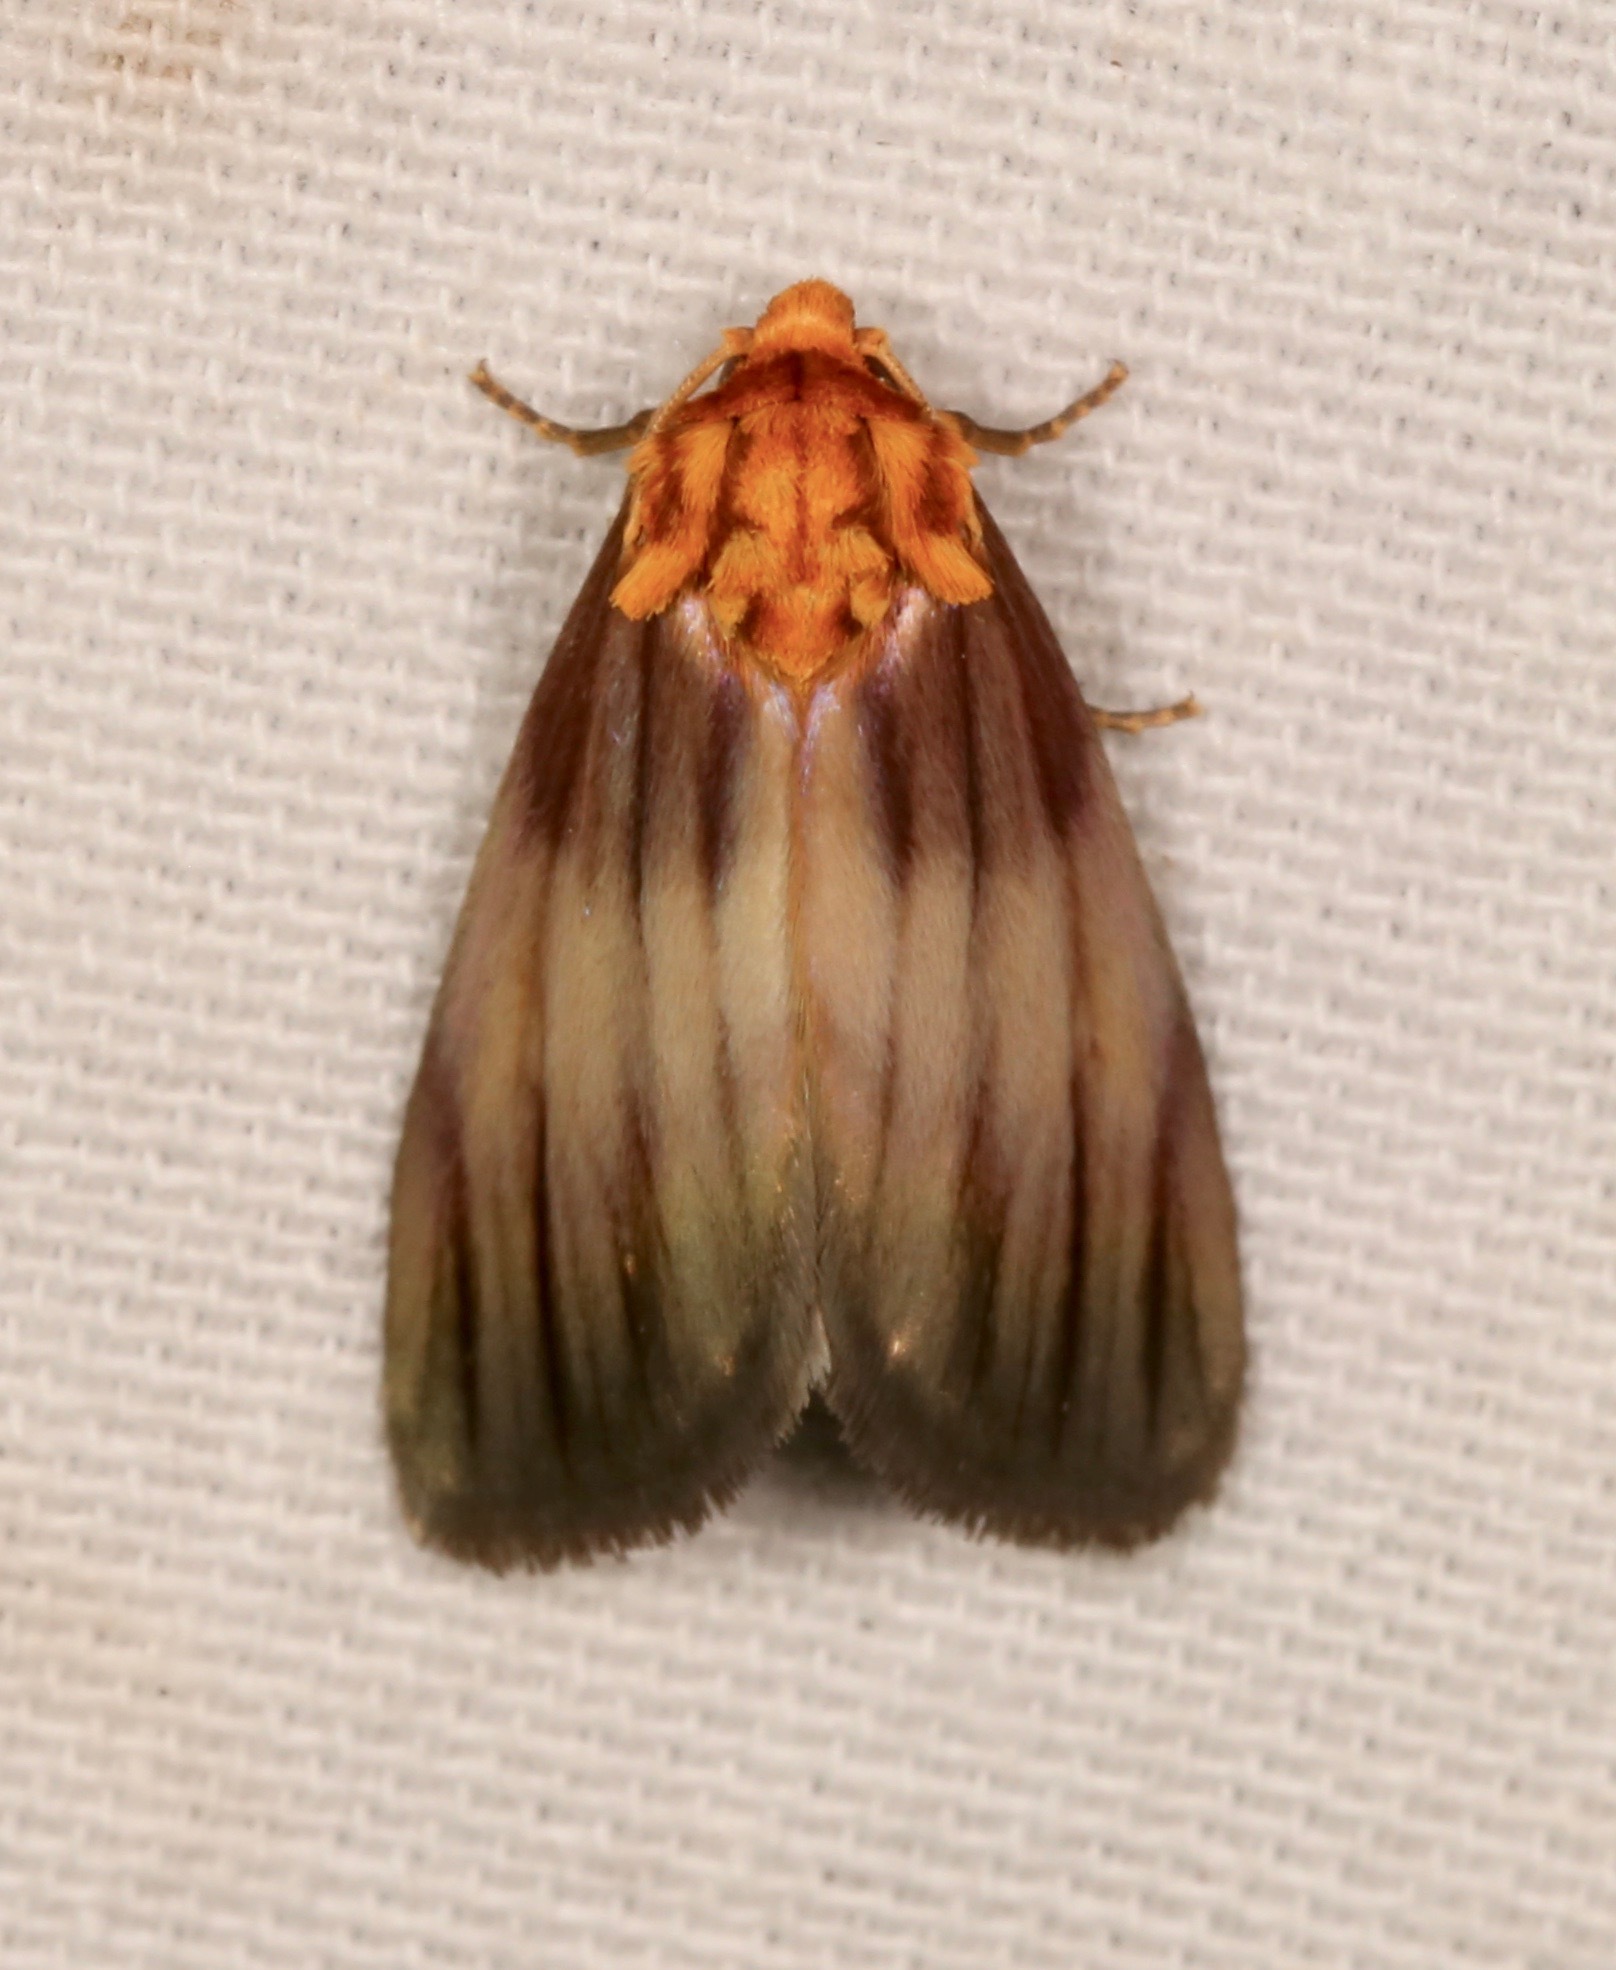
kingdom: Animalia
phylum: Arthropoda
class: Insecta
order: Lepidoptera
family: Noctuidae
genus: Antaplaga
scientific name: Antaplaga plesioglauca
